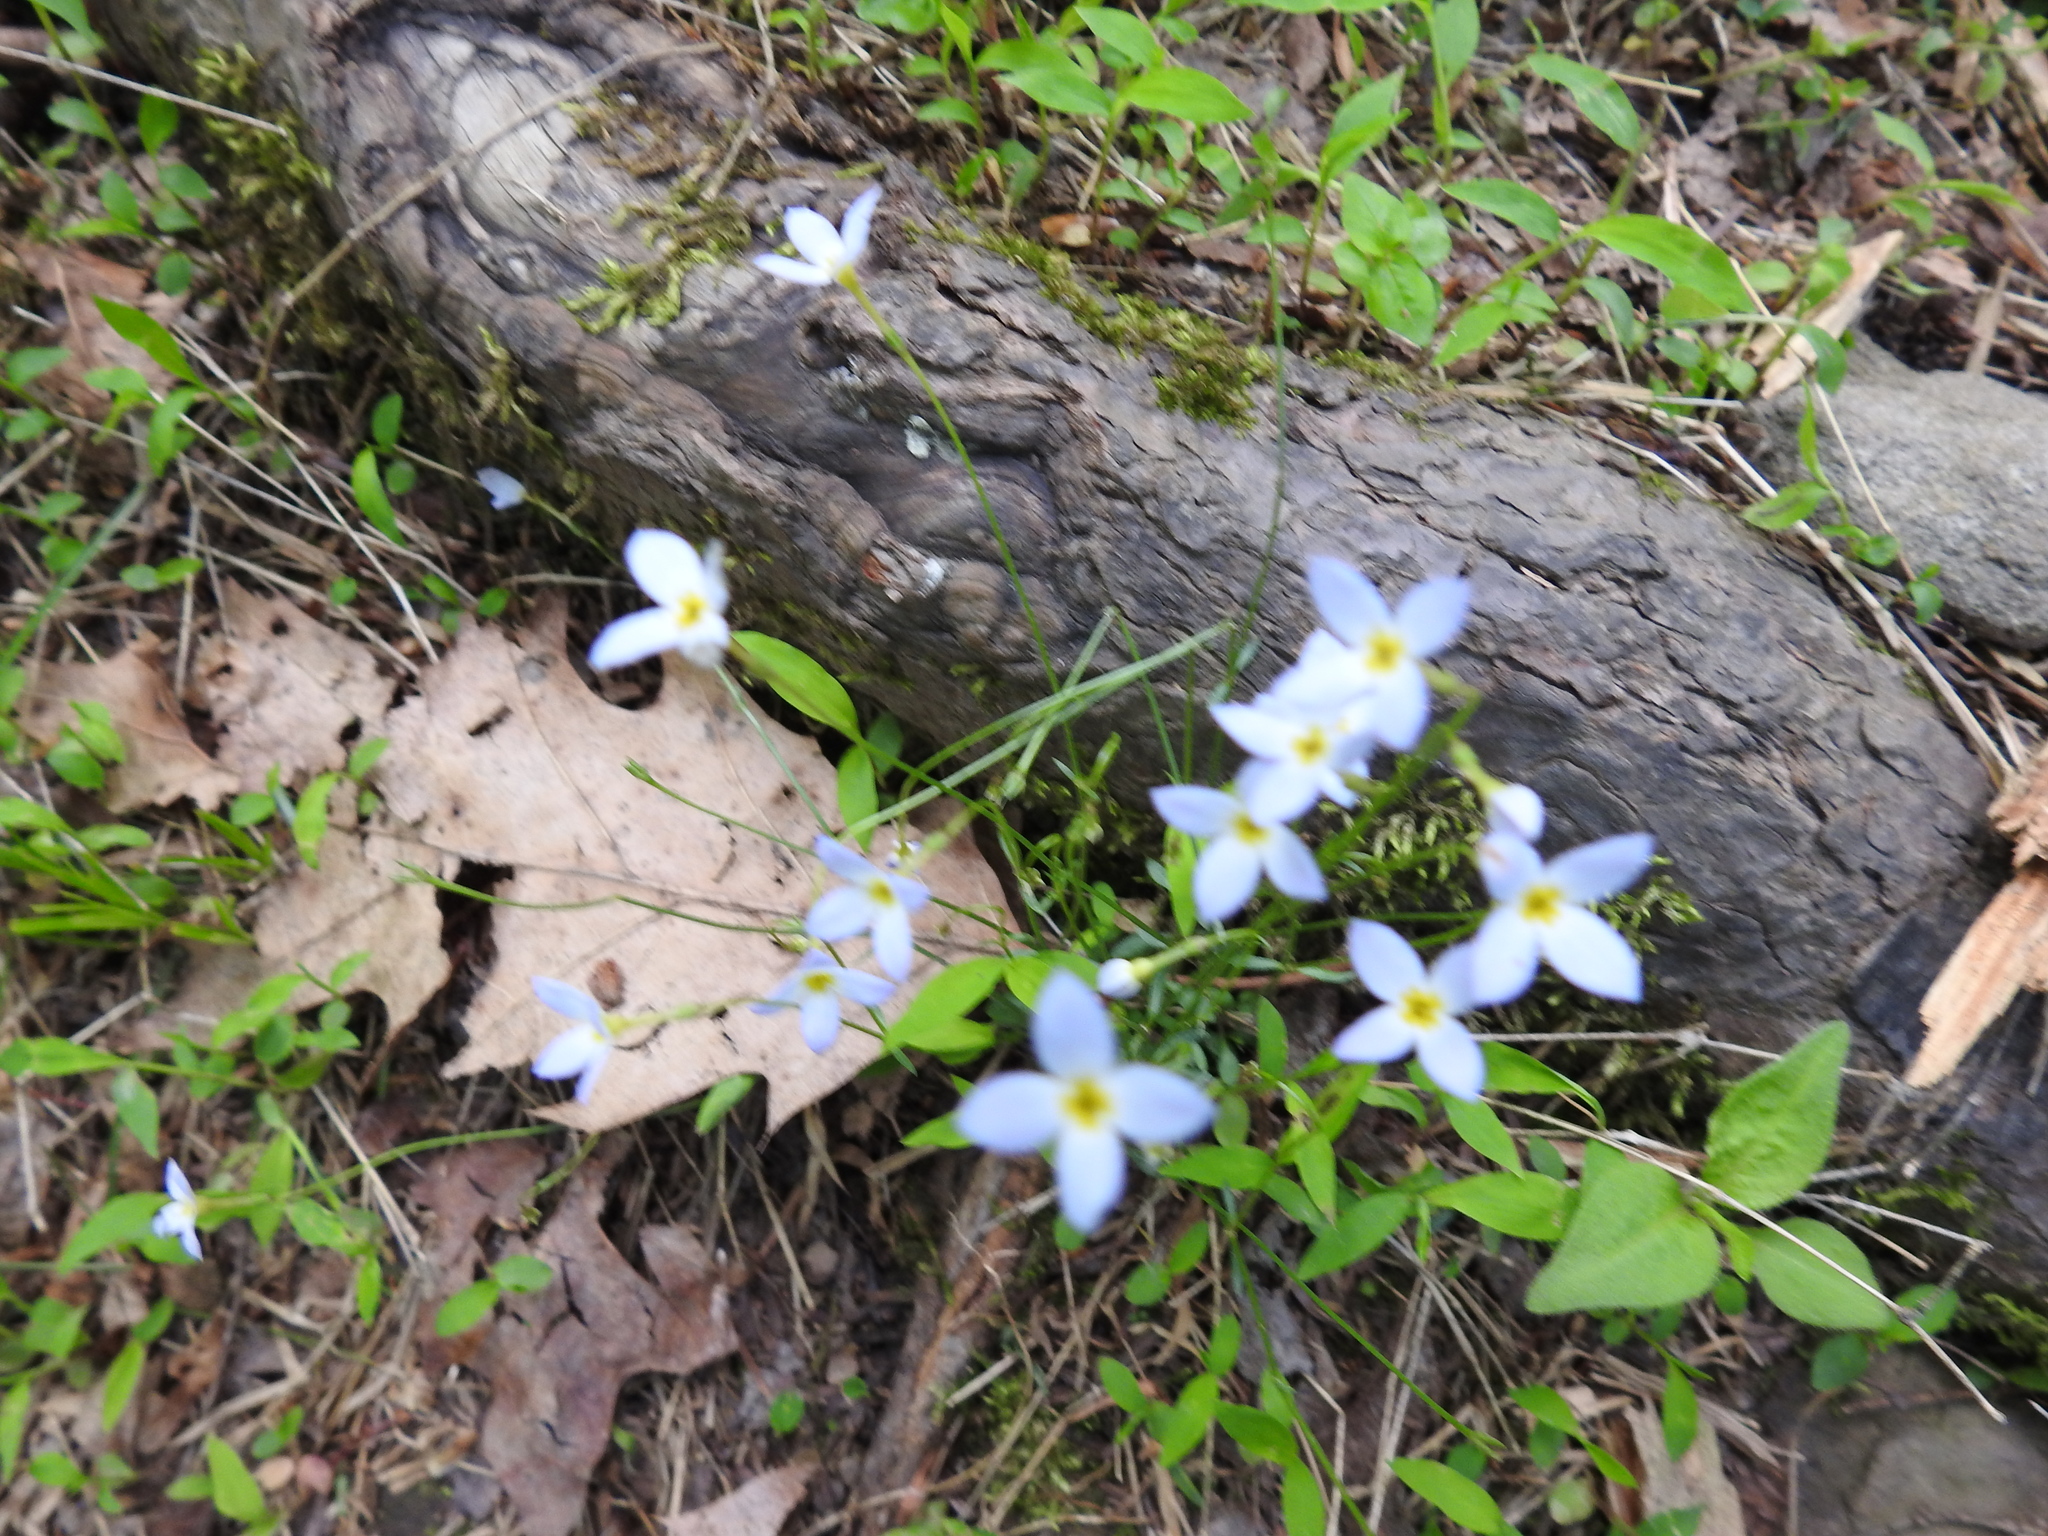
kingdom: Plantae
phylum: Tracheophyta
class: Magnoliopsida
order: Gentianales
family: Rubiaceae
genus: Houstonia
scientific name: Houstonia caerulea
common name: Bluets
